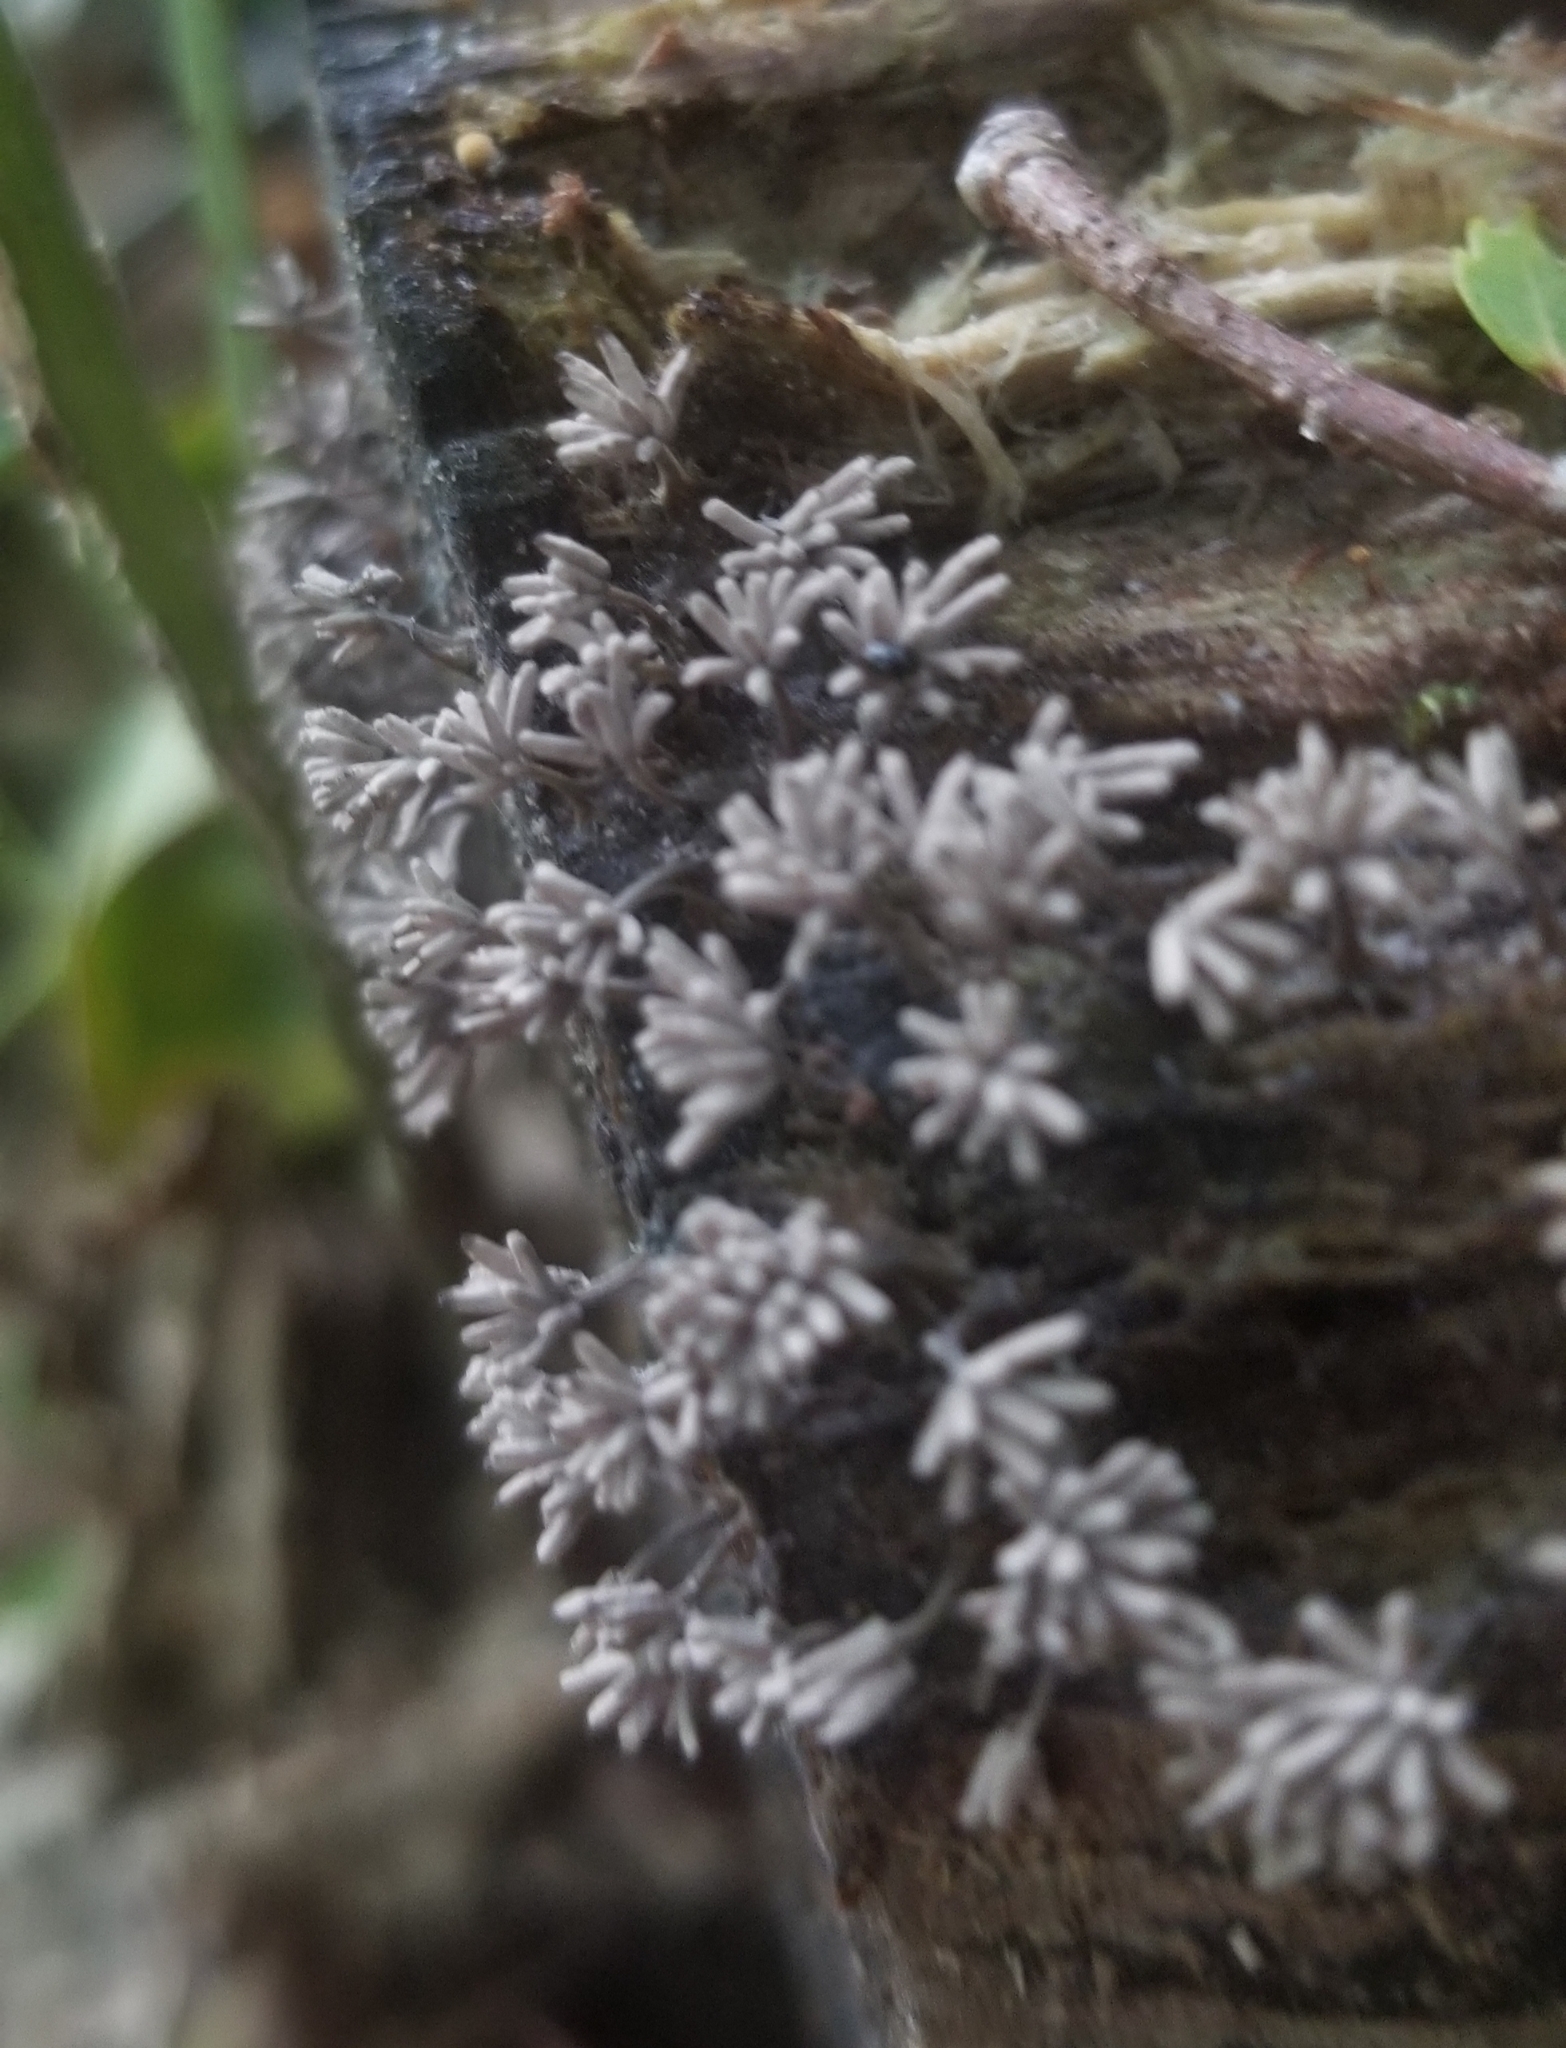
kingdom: Protozoa
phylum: Mycetozoa
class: Myxomycetes
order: Trichiales
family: Arcyriaceae
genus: Arcyria
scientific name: Arcyria cinerea
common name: White carnival candy slime mold
